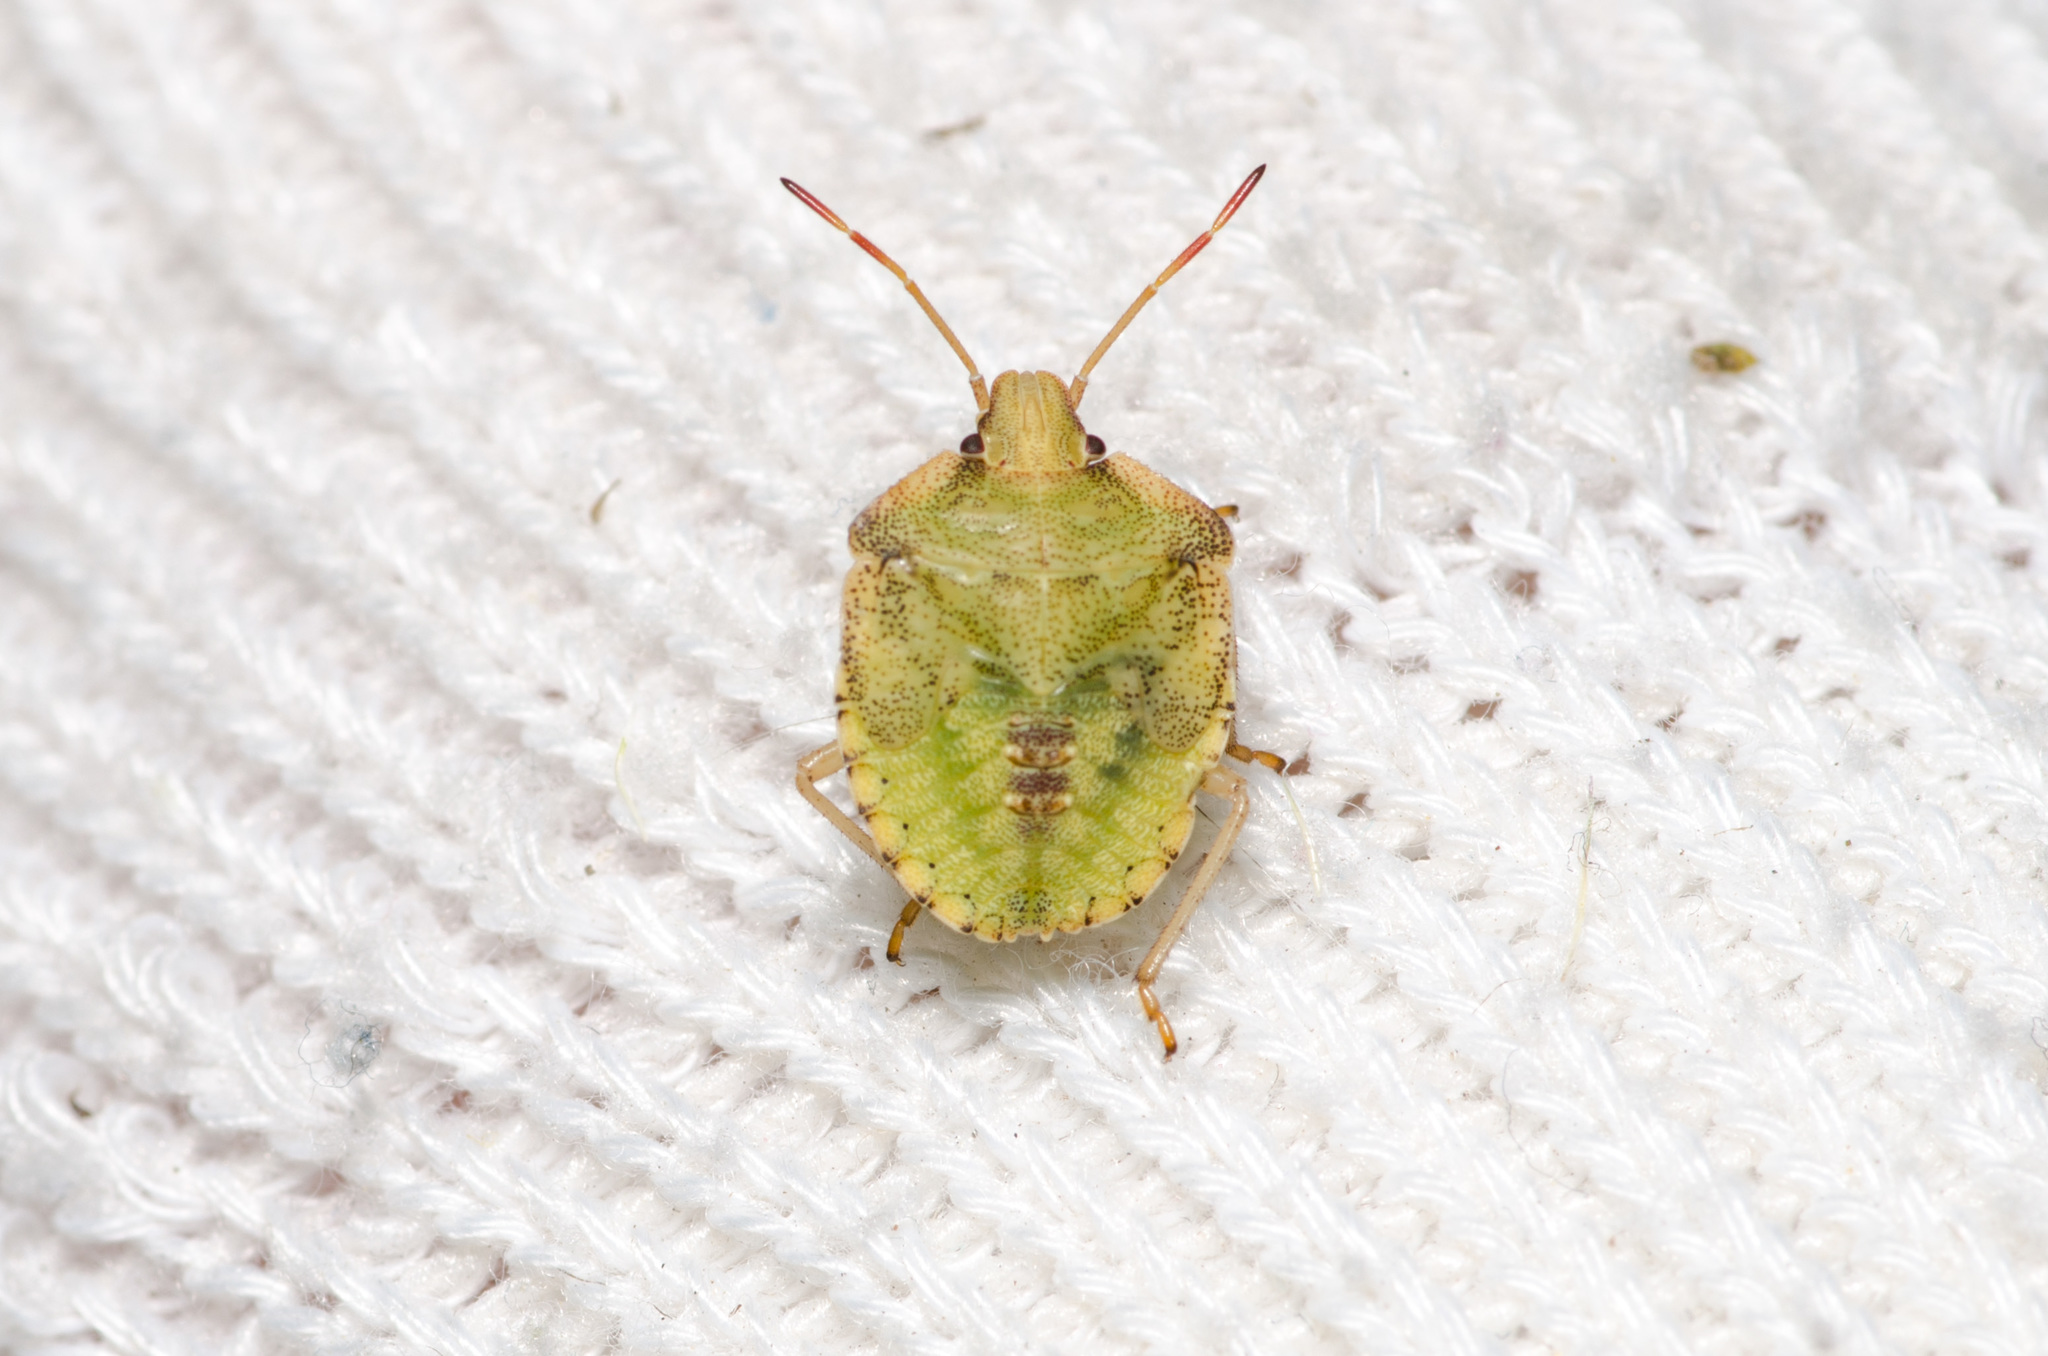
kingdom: Animalia
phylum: Arthropoda
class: Insecta
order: Hemiptera
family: Pentatomidae
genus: Euschistus
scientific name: Euschistus
